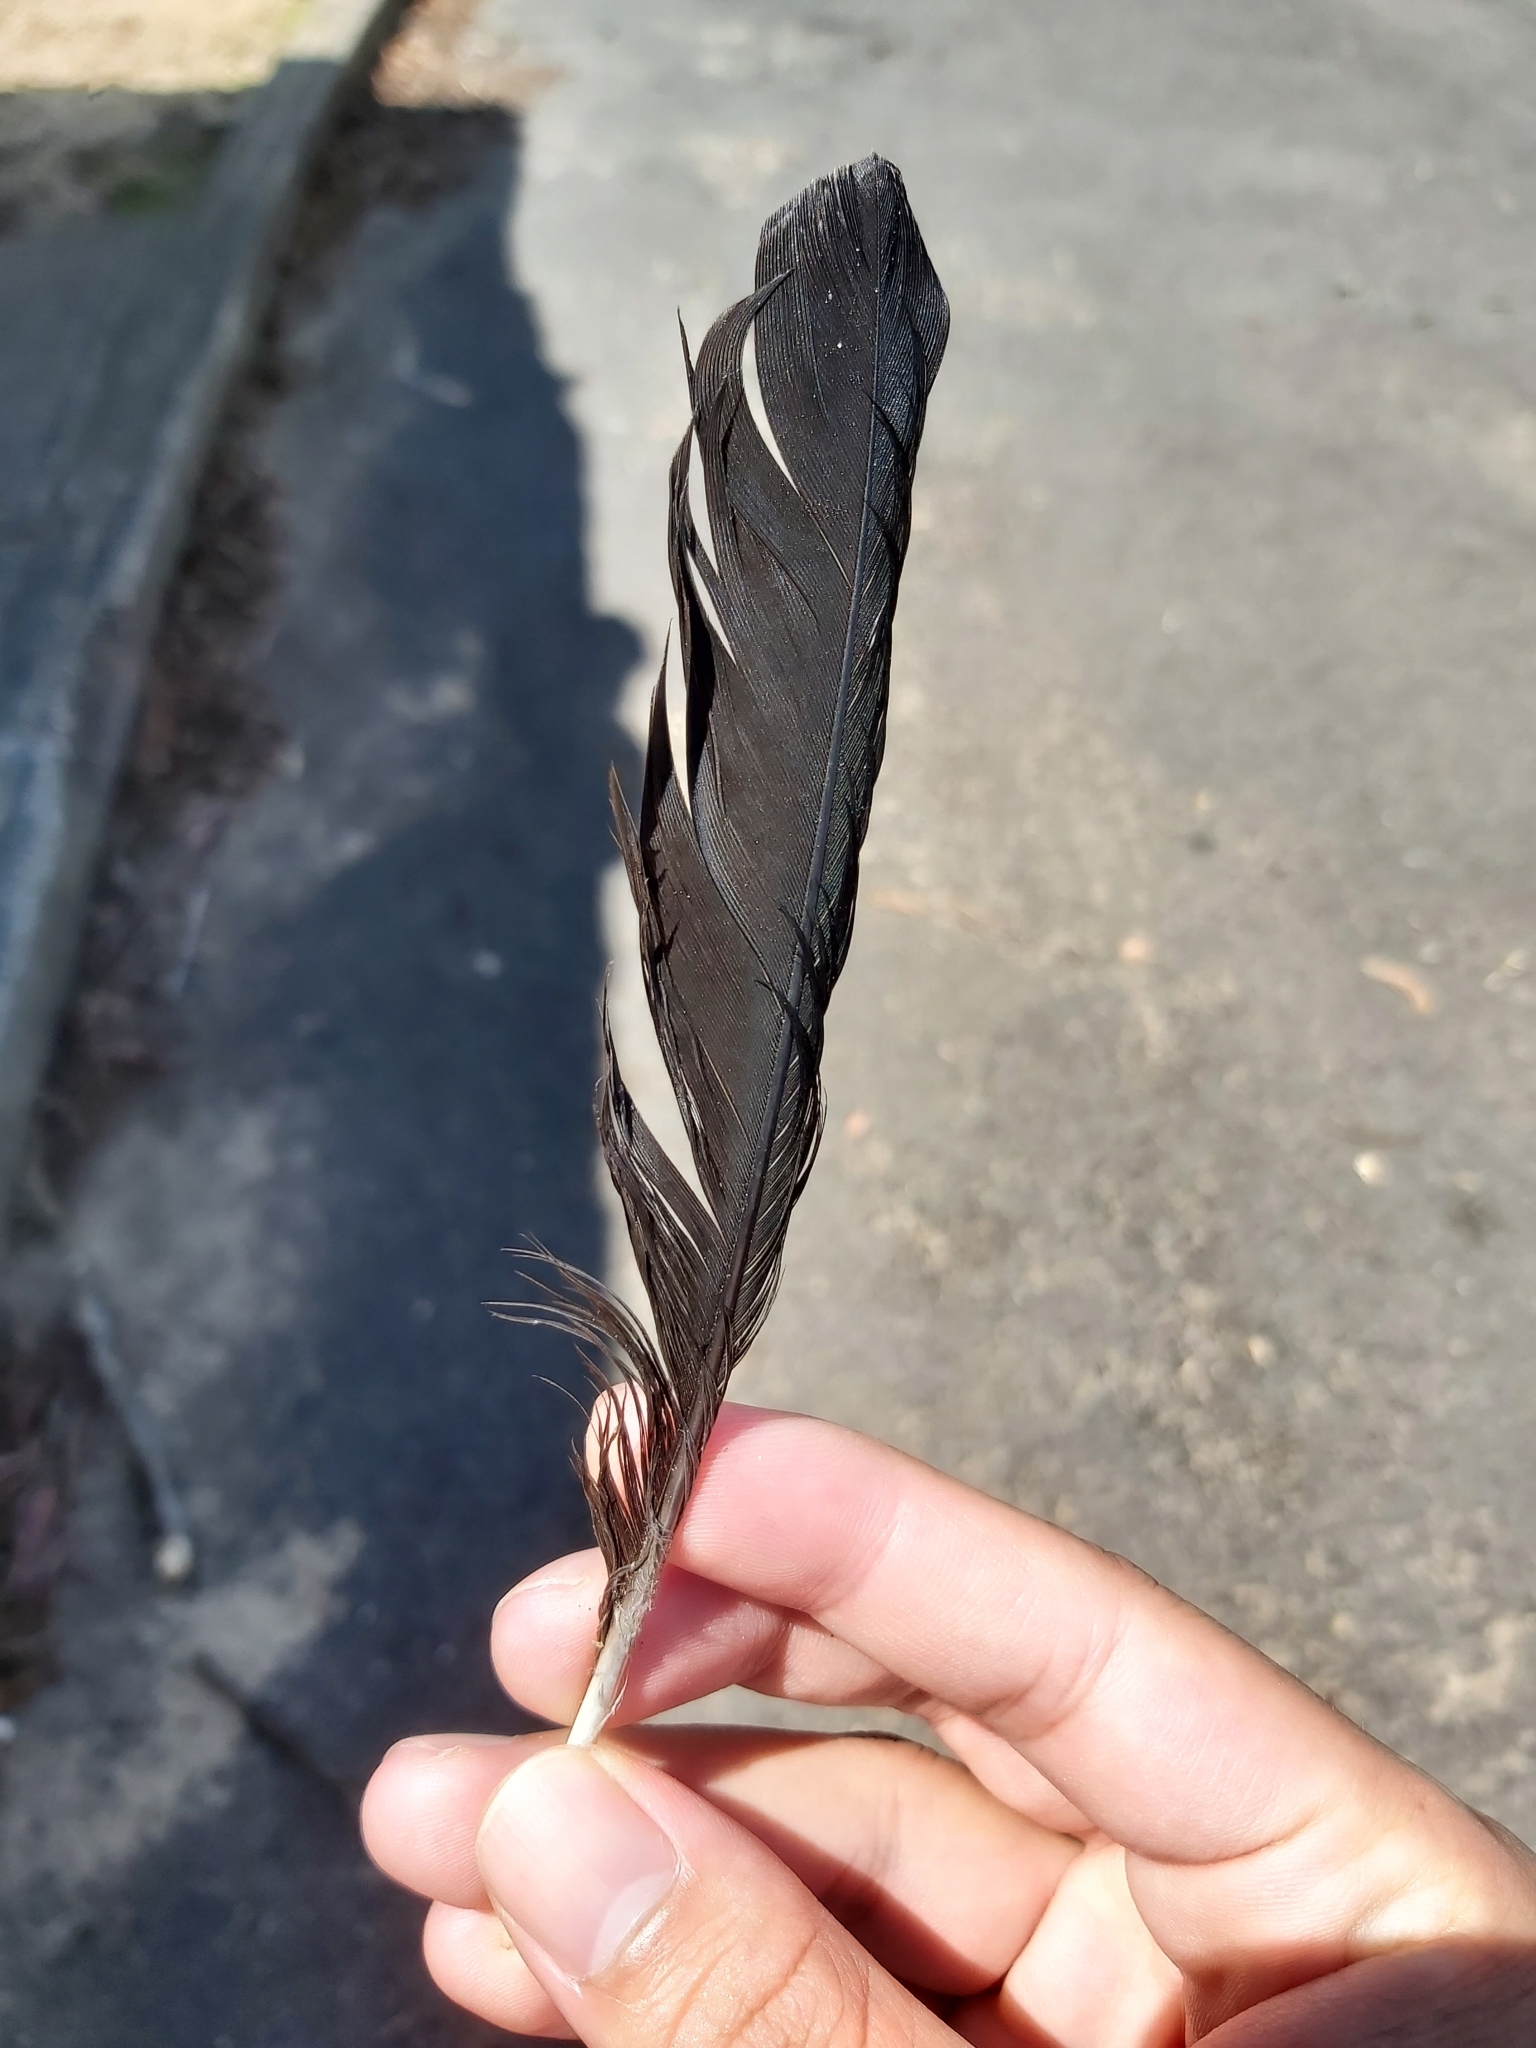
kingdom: Animalia
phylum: Chordata
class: Aves
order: Passeriformes
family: Cracticidae
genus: Gymnorhina
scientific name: Gymnorhina tibicen
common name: Australian magpie
